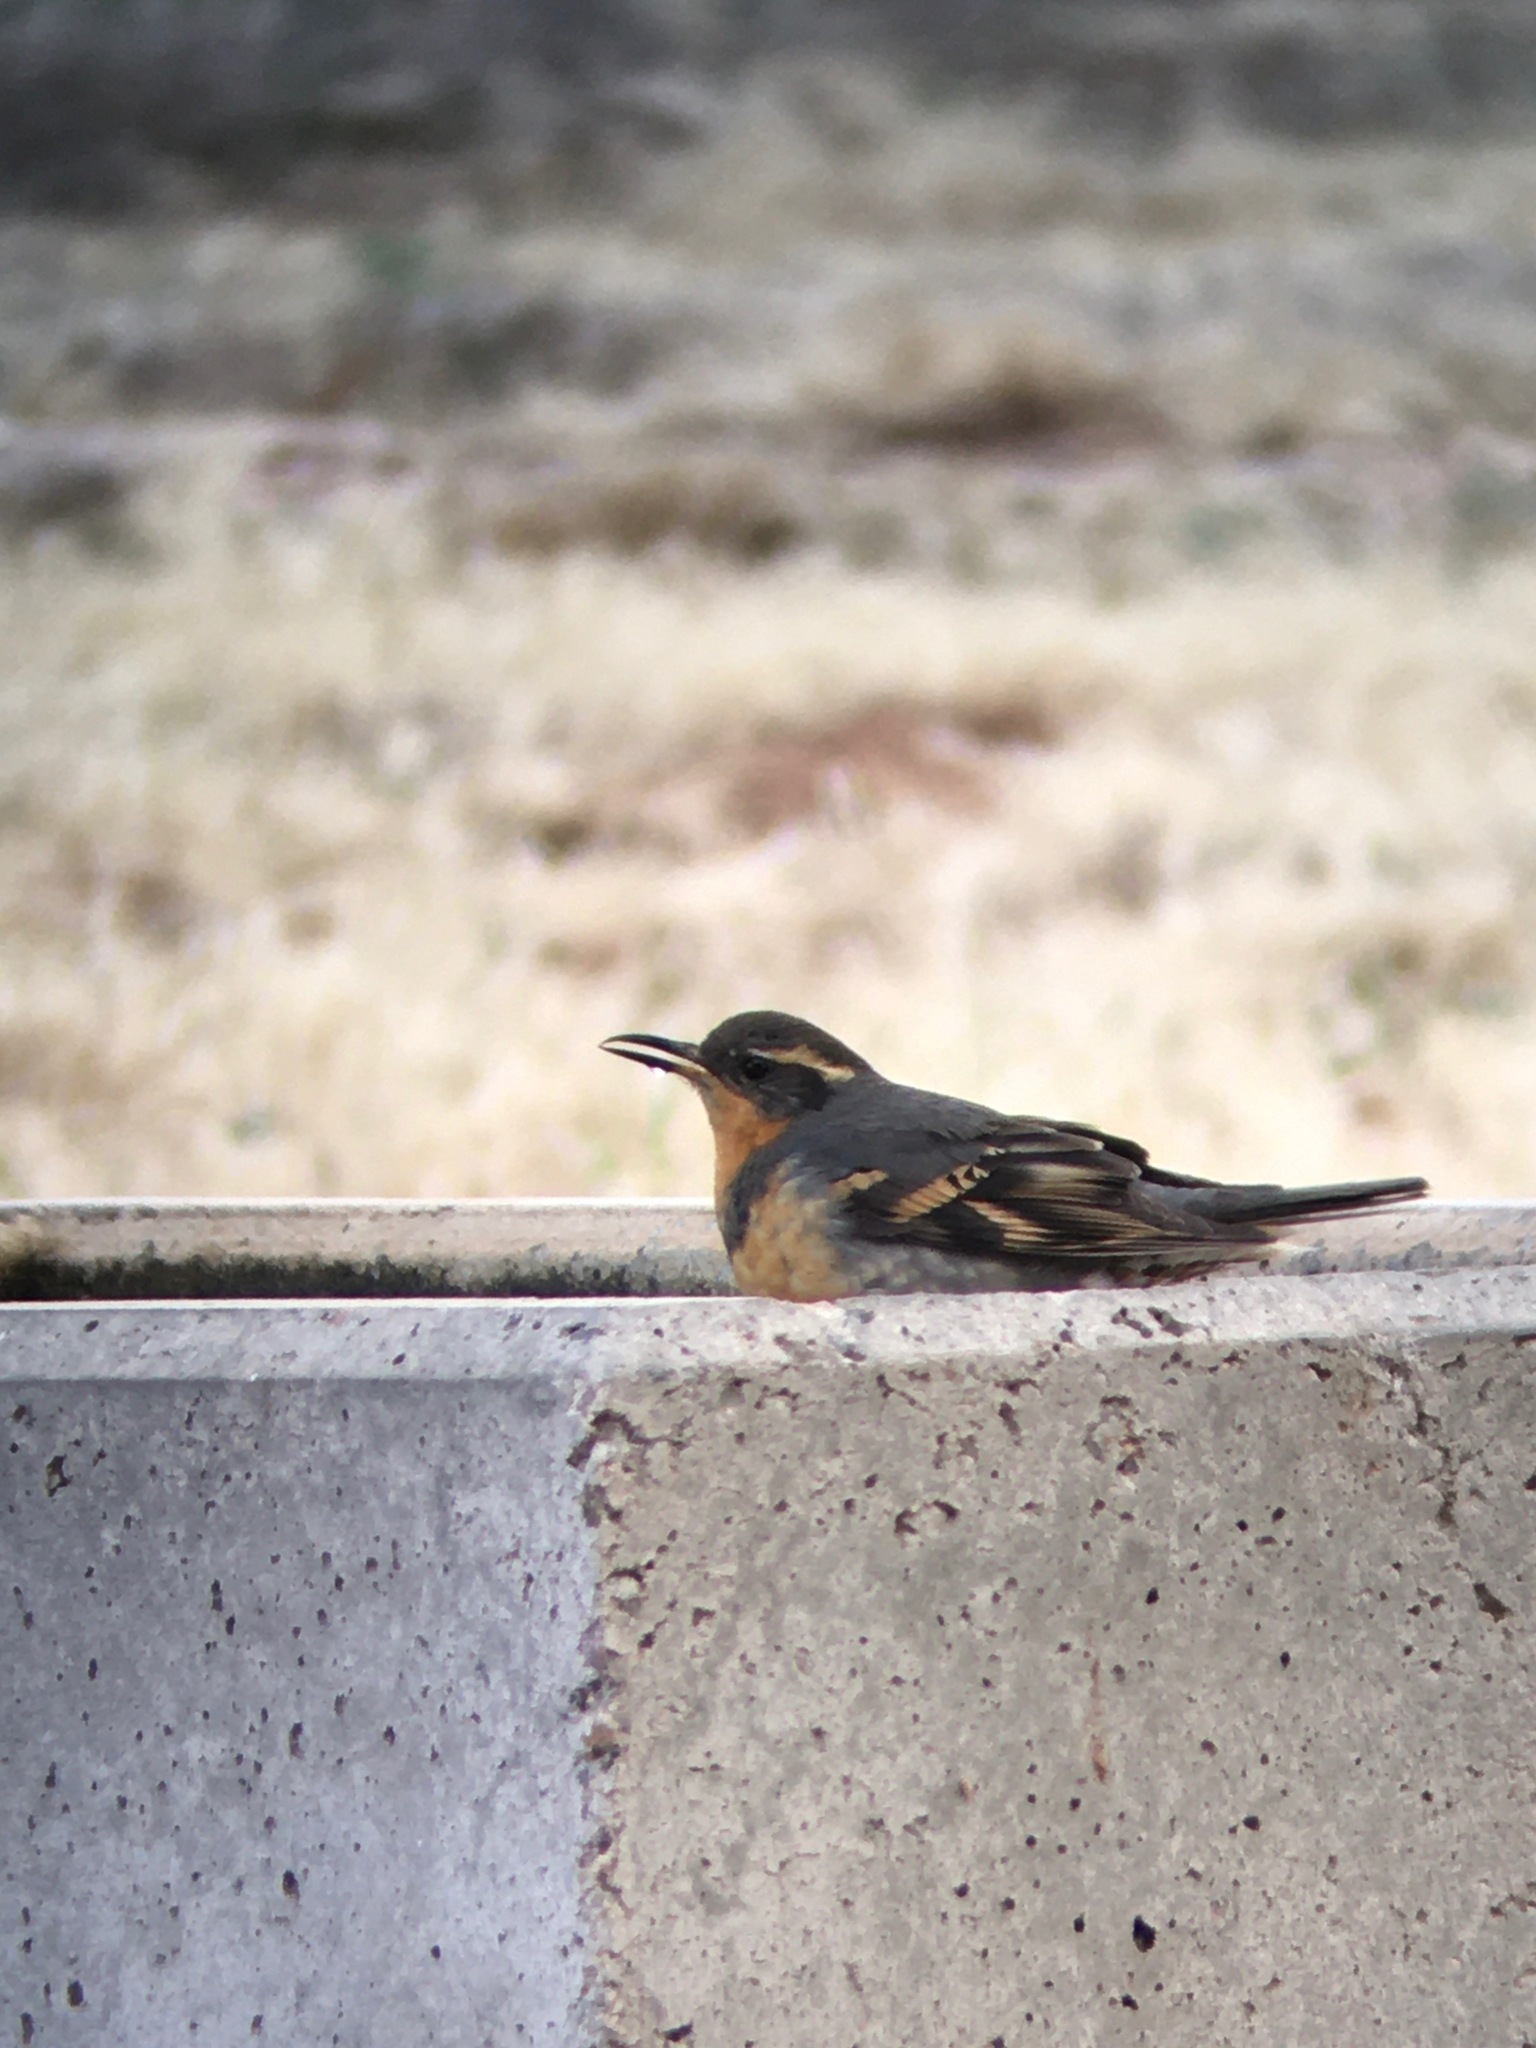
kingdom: Animalia
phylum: Chordata
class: Aves
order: Passeriformes
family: Turdidae
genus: Ixoreus
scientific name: Ixoreus naevius
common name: Varied thrush
